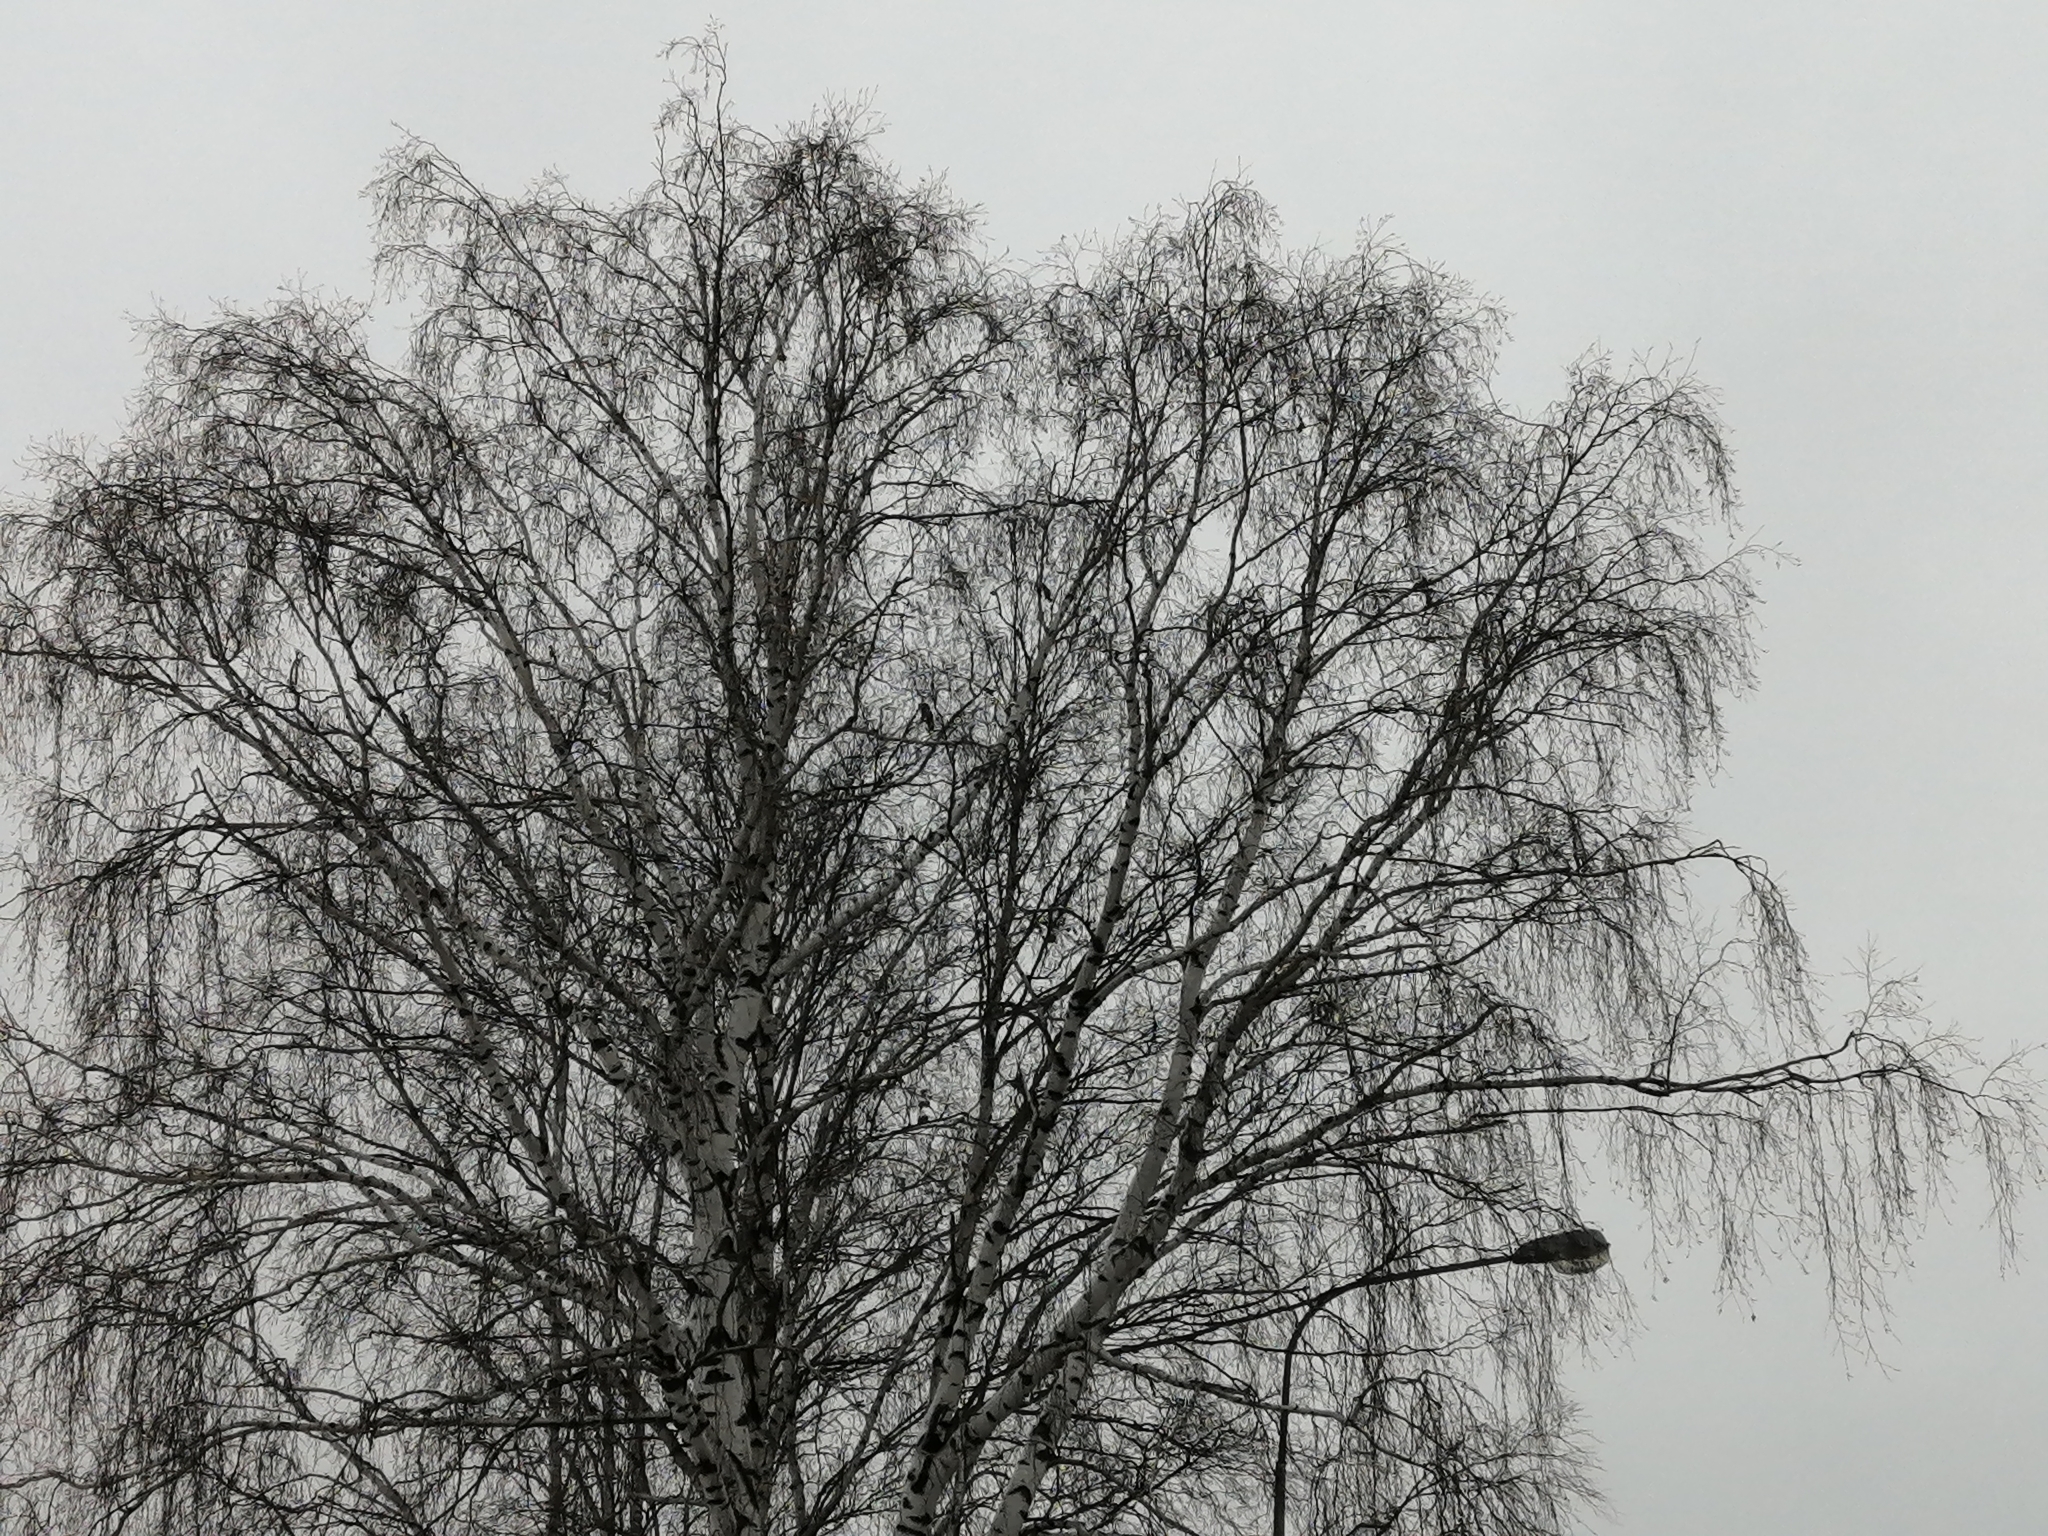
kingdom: Plantae
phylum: Tracheophyta
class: Magnoliopsida
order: Fagales
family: Betulaceae
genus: Betula
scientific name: Betula pendula
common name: Silver birch
